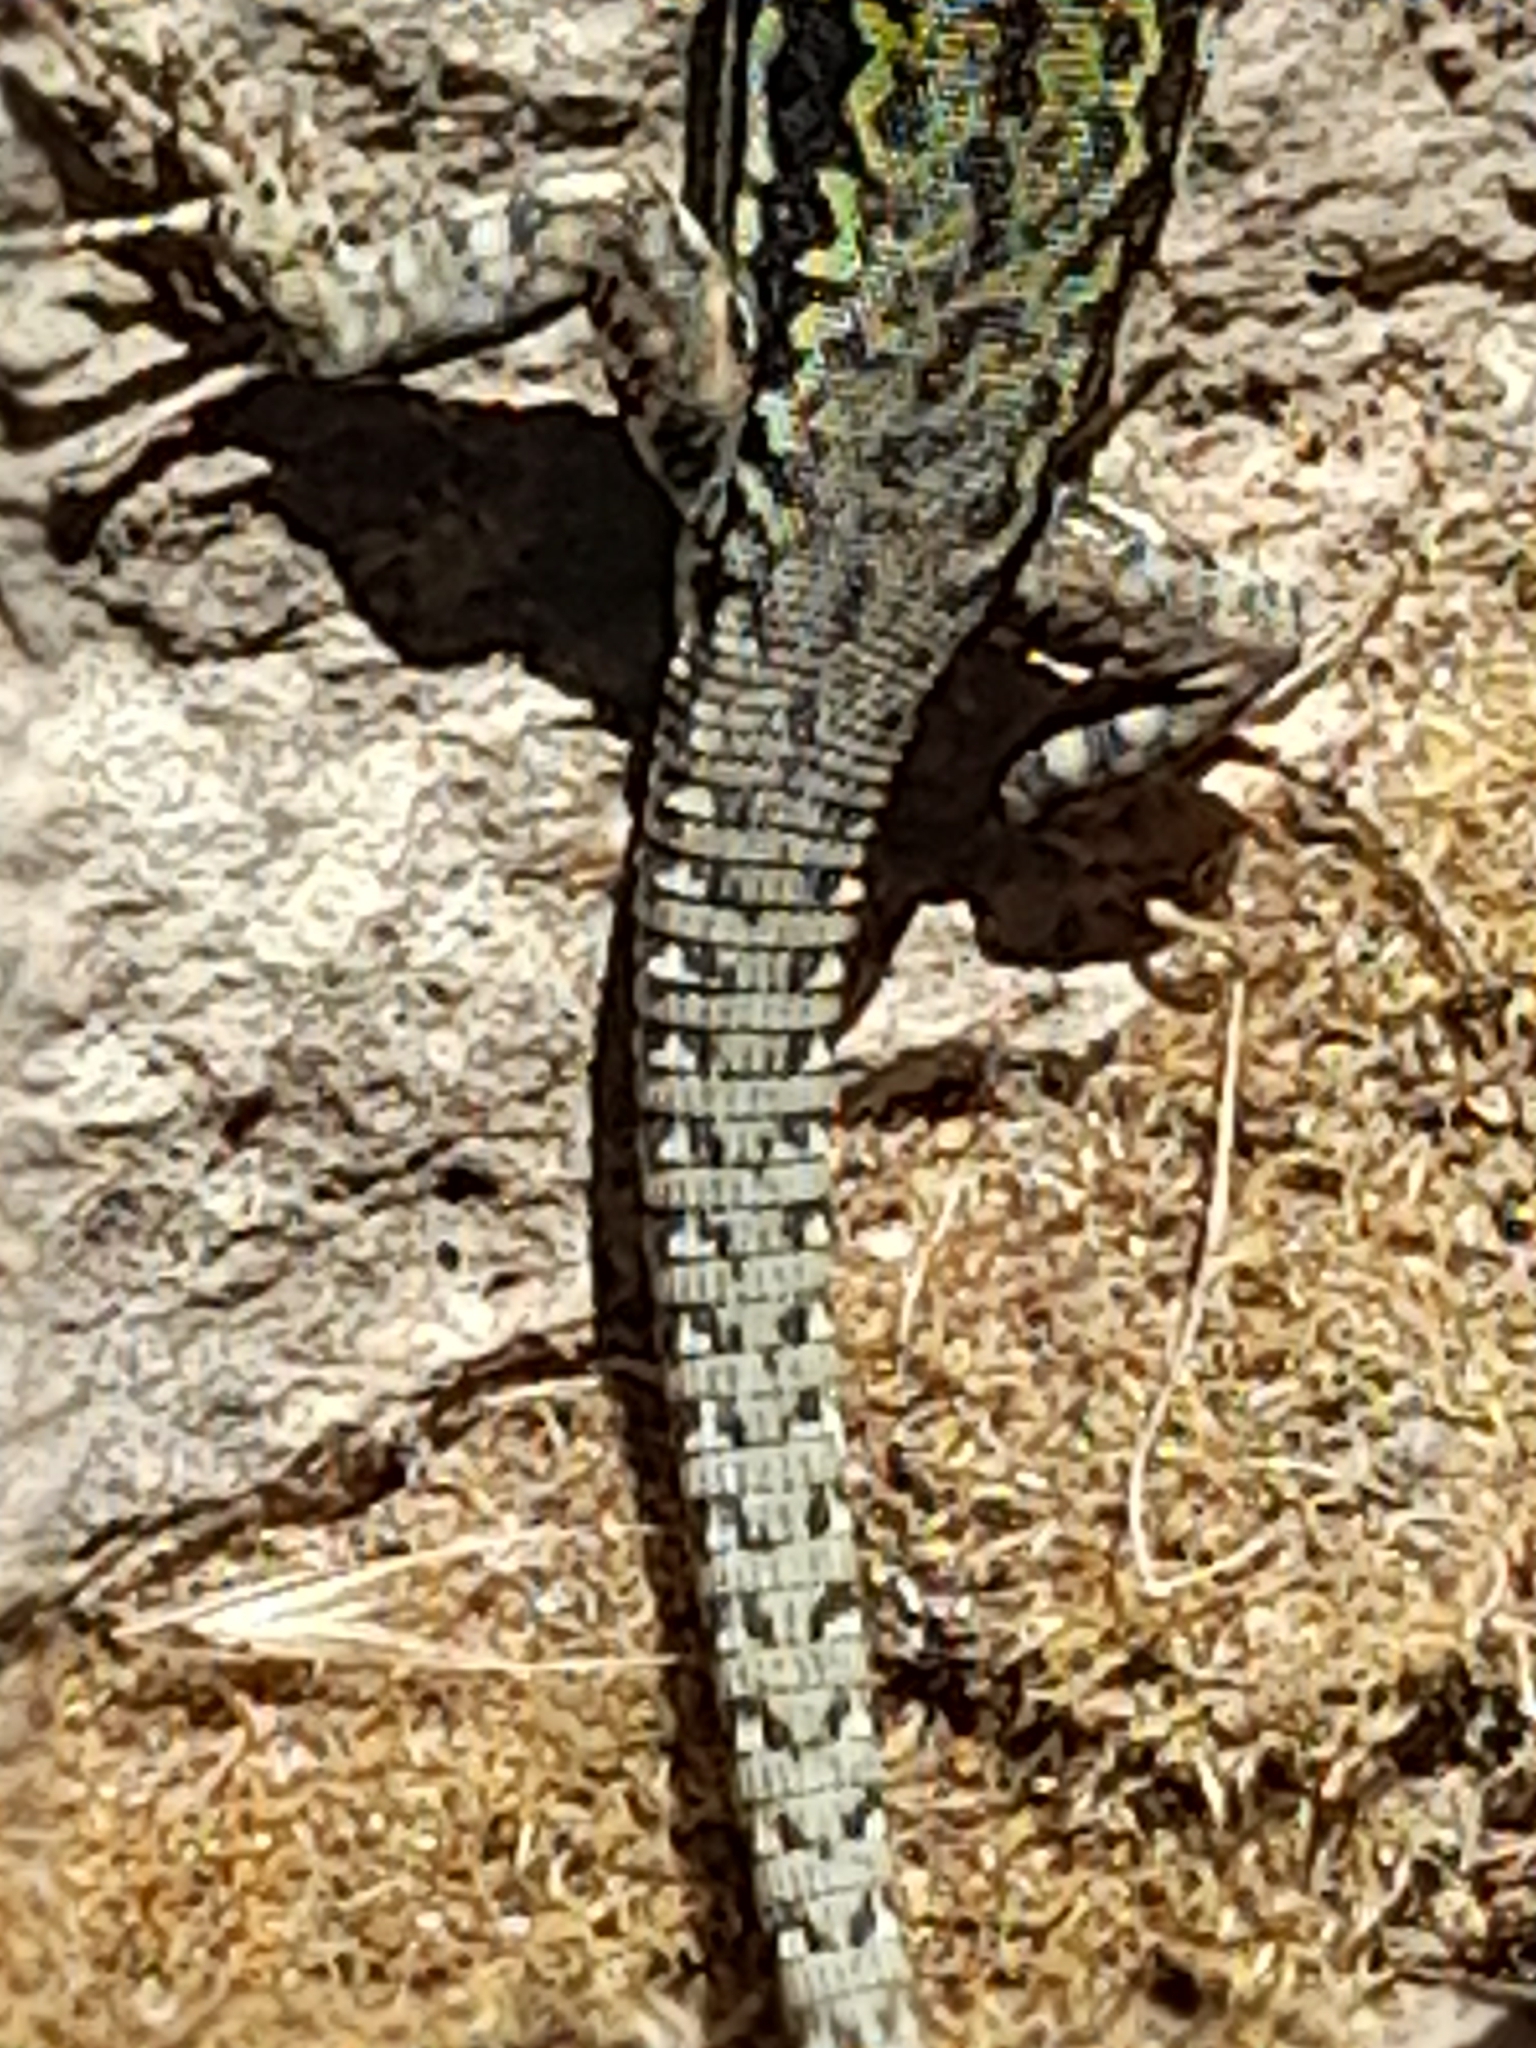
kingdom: Animalia
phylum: Chordata
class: Squamata
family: Lacertidae
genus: Podarcis
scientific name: Podarcis muralis
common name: Common wall lizard
